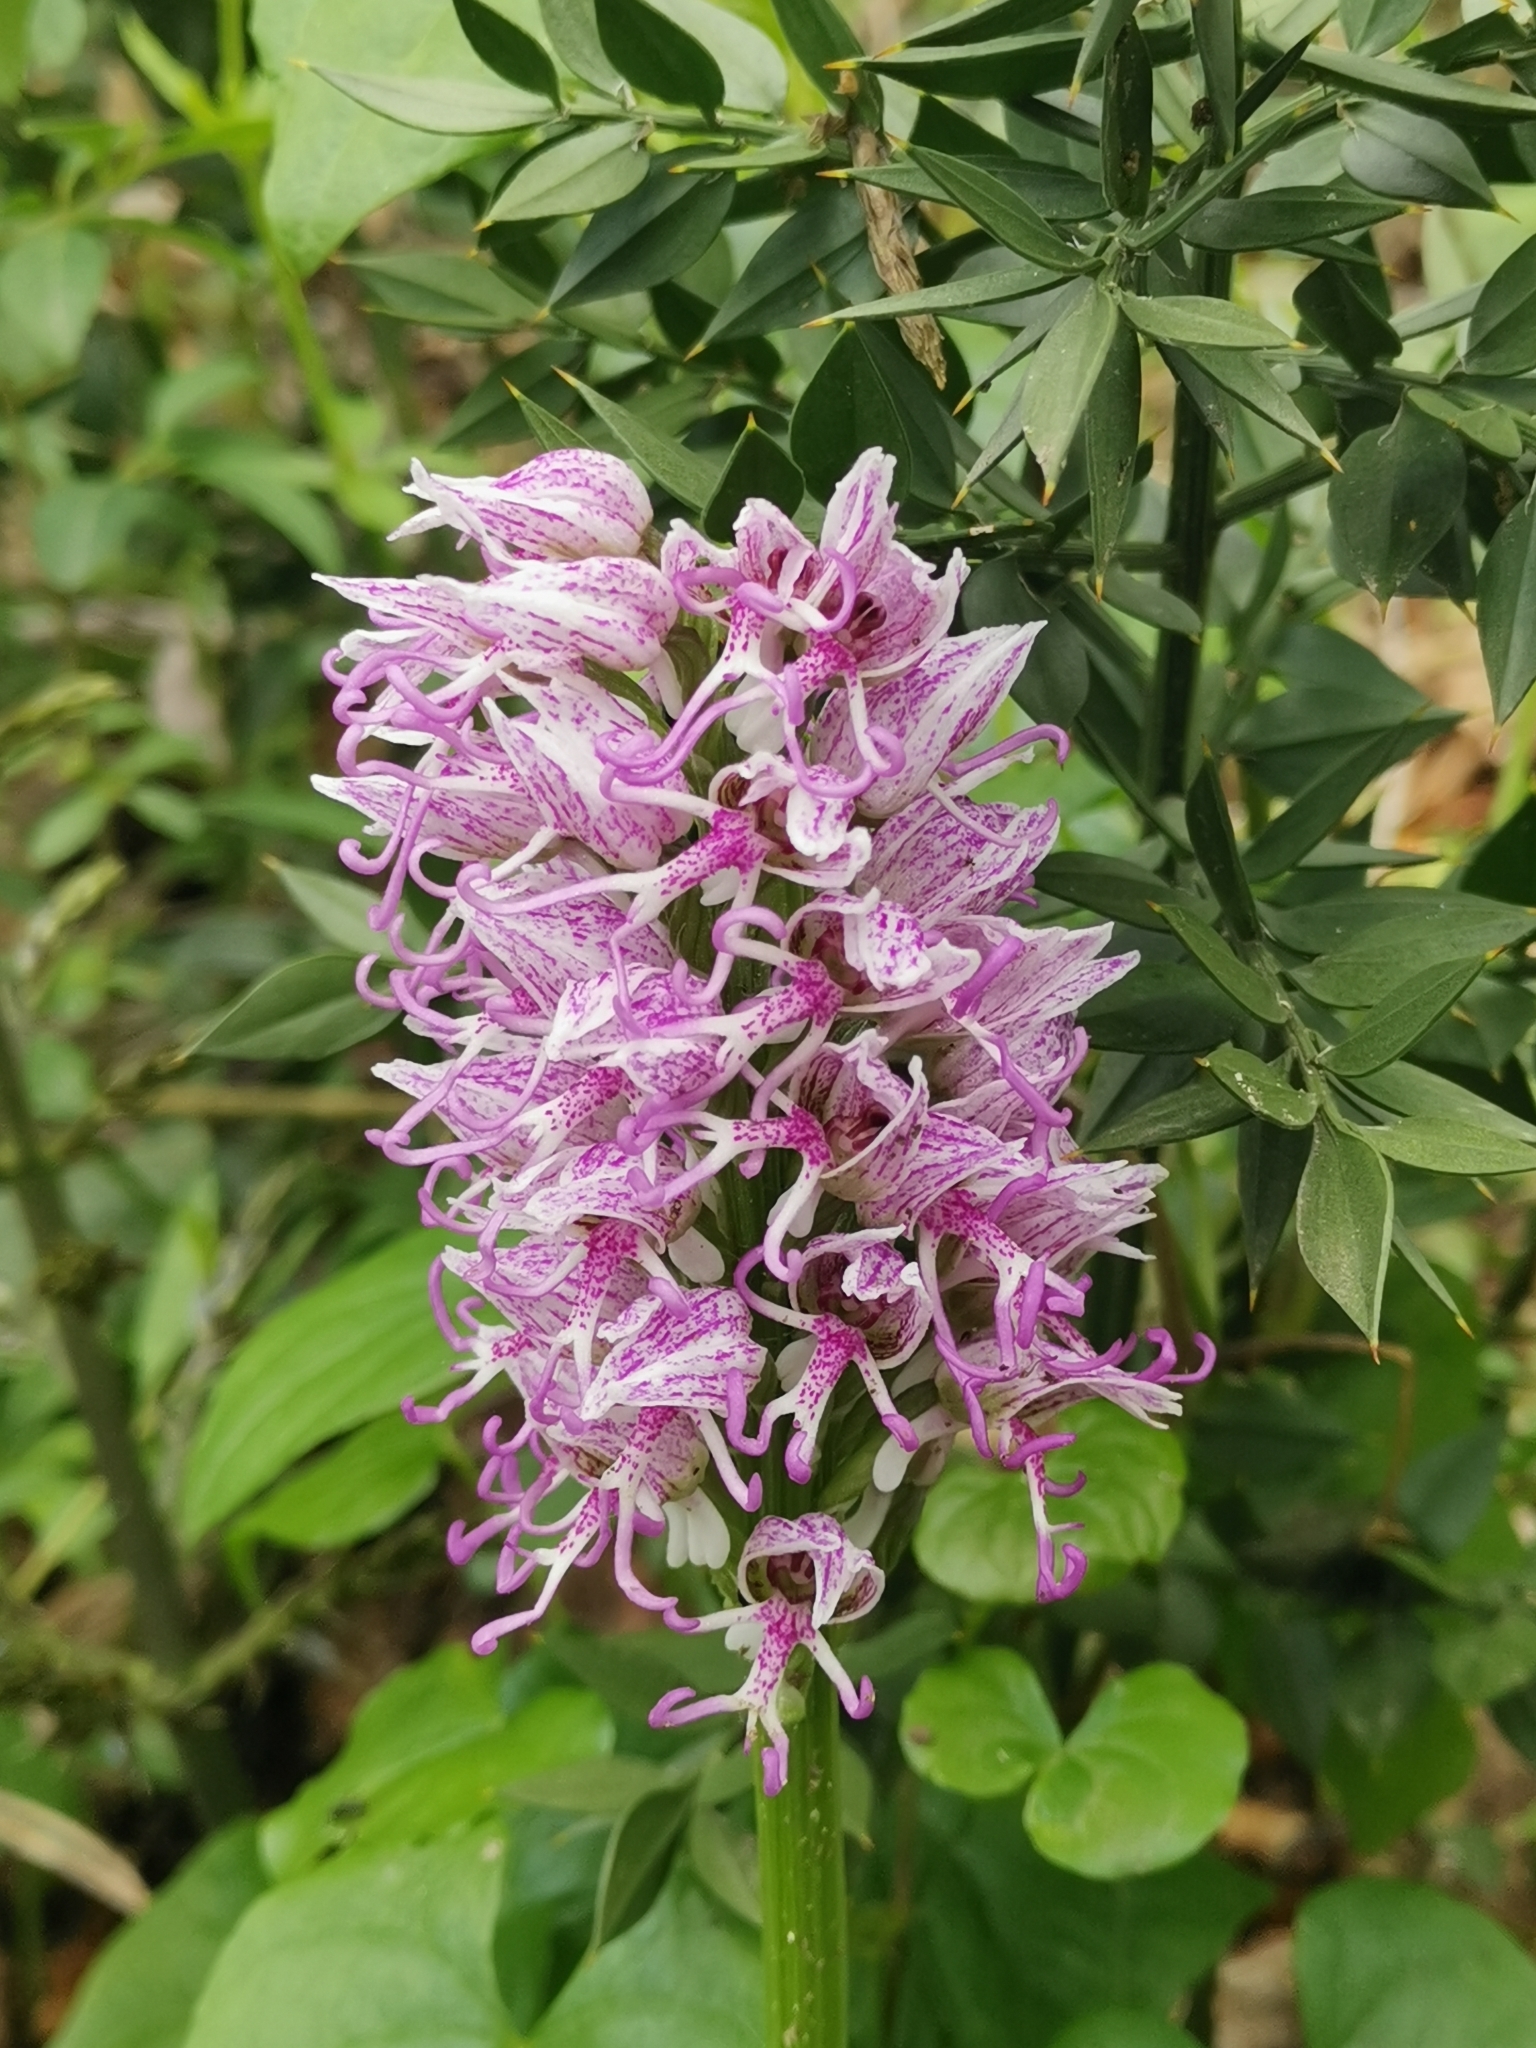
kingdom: Plantae
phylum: Tracheophyta
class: Liliopsida
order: Asparagales
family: Orchidaceae
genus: Orchis
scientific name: Orchis simia
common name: Monkey orchid
